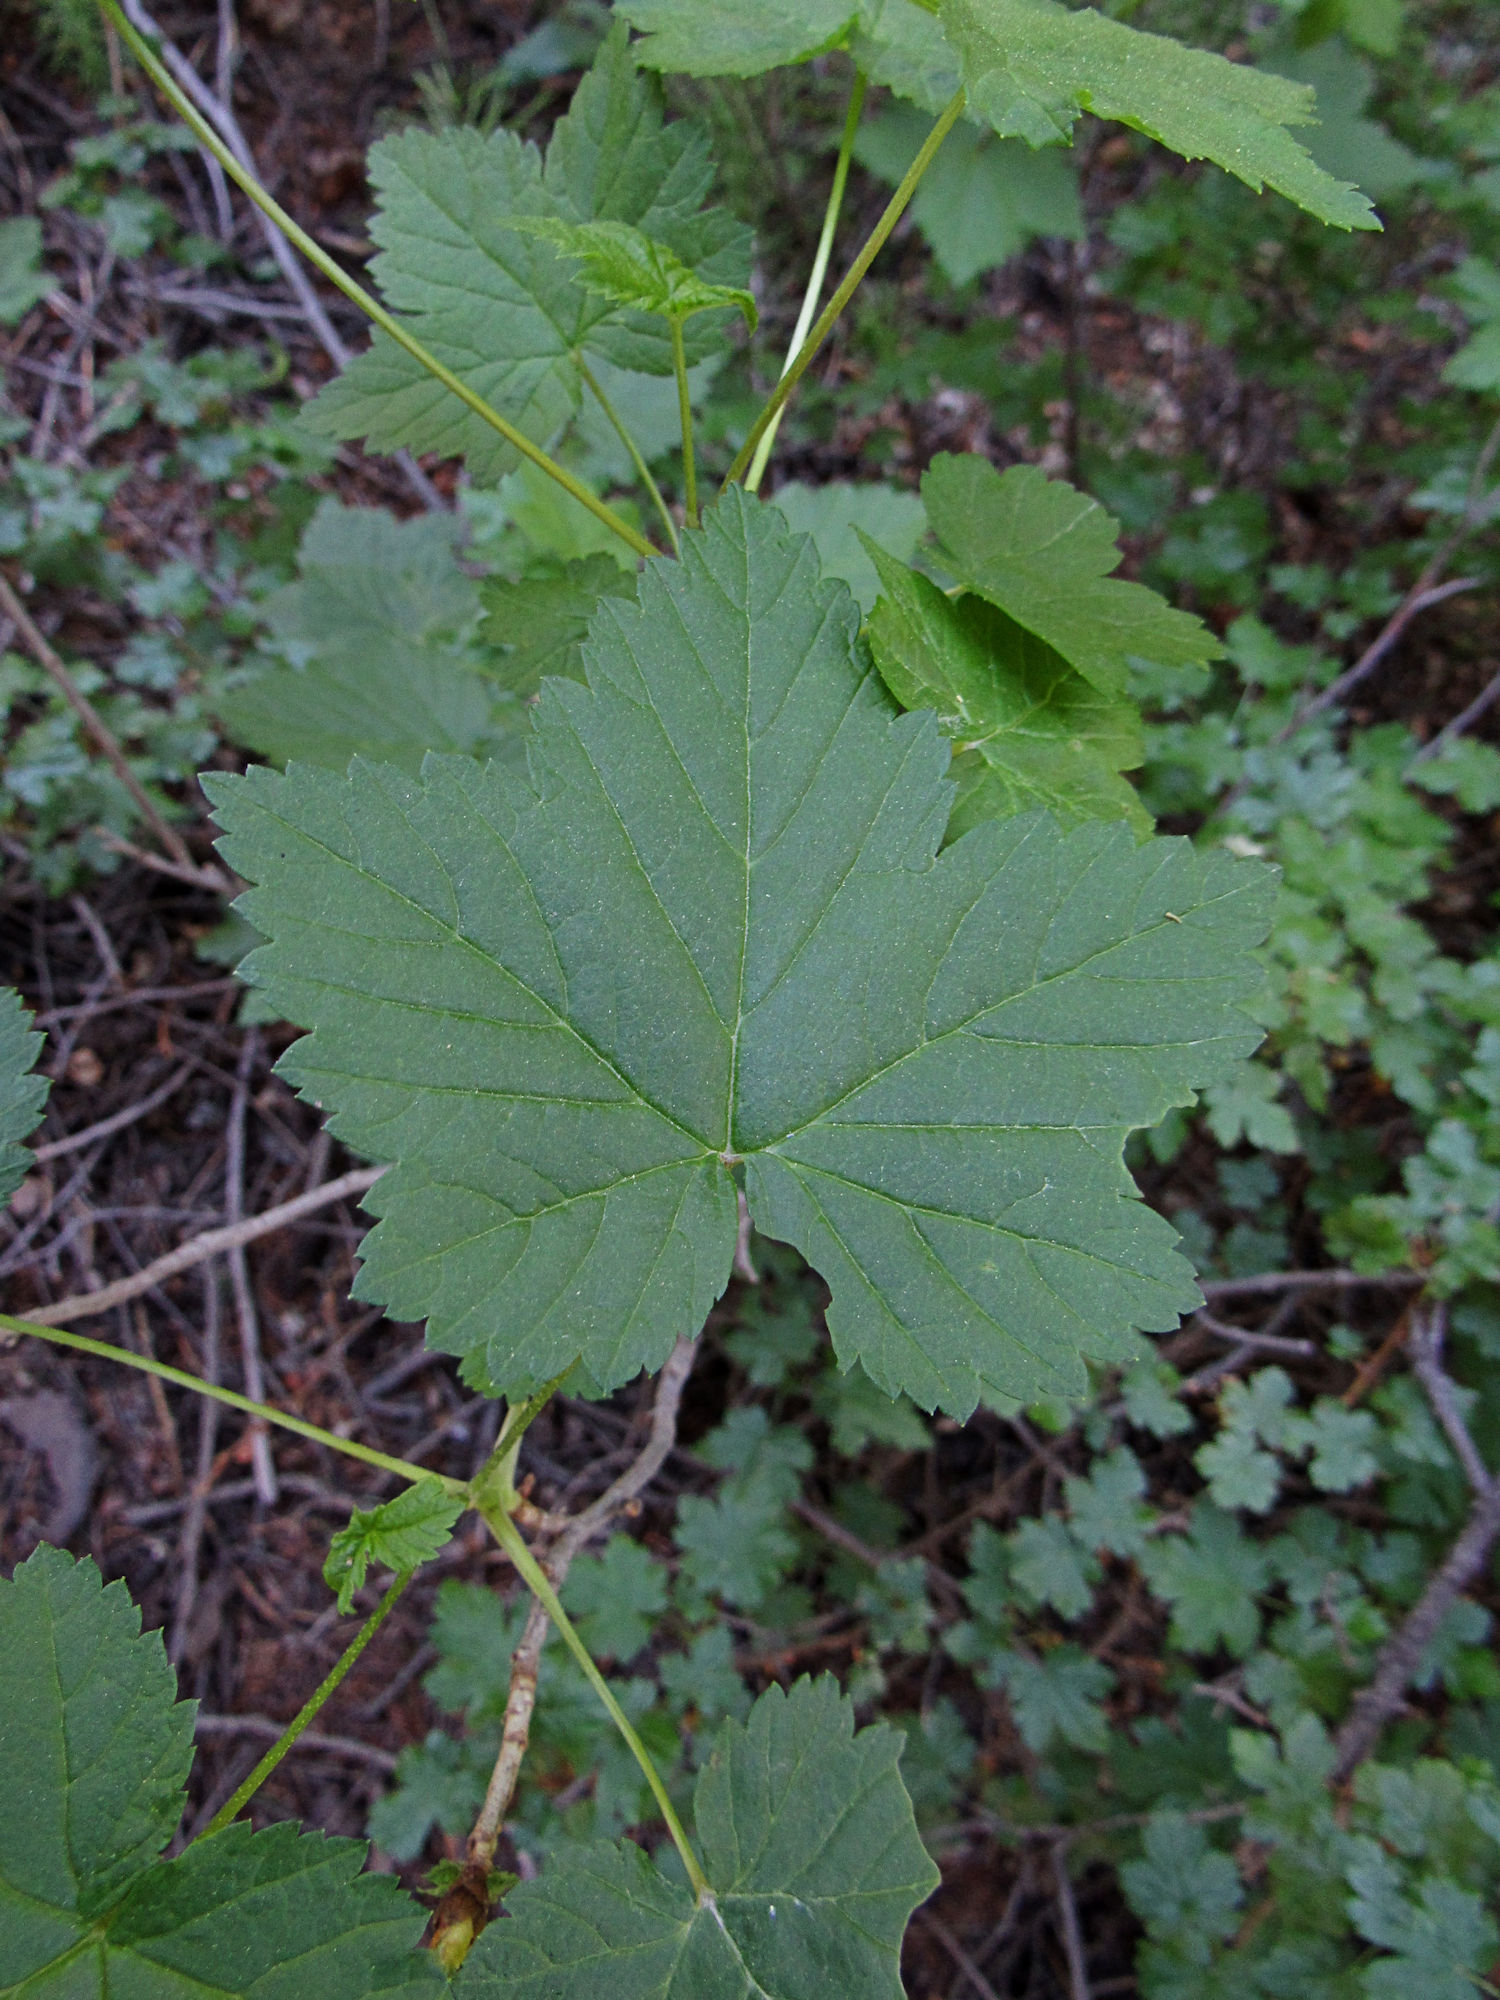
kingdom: Plantae
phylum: Tracheophyta
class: Magnoliopsida
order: Saxifragales
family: Grossulariaceae
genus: Ribes
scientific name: Ribes hudsonianum
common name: Northern black currant
